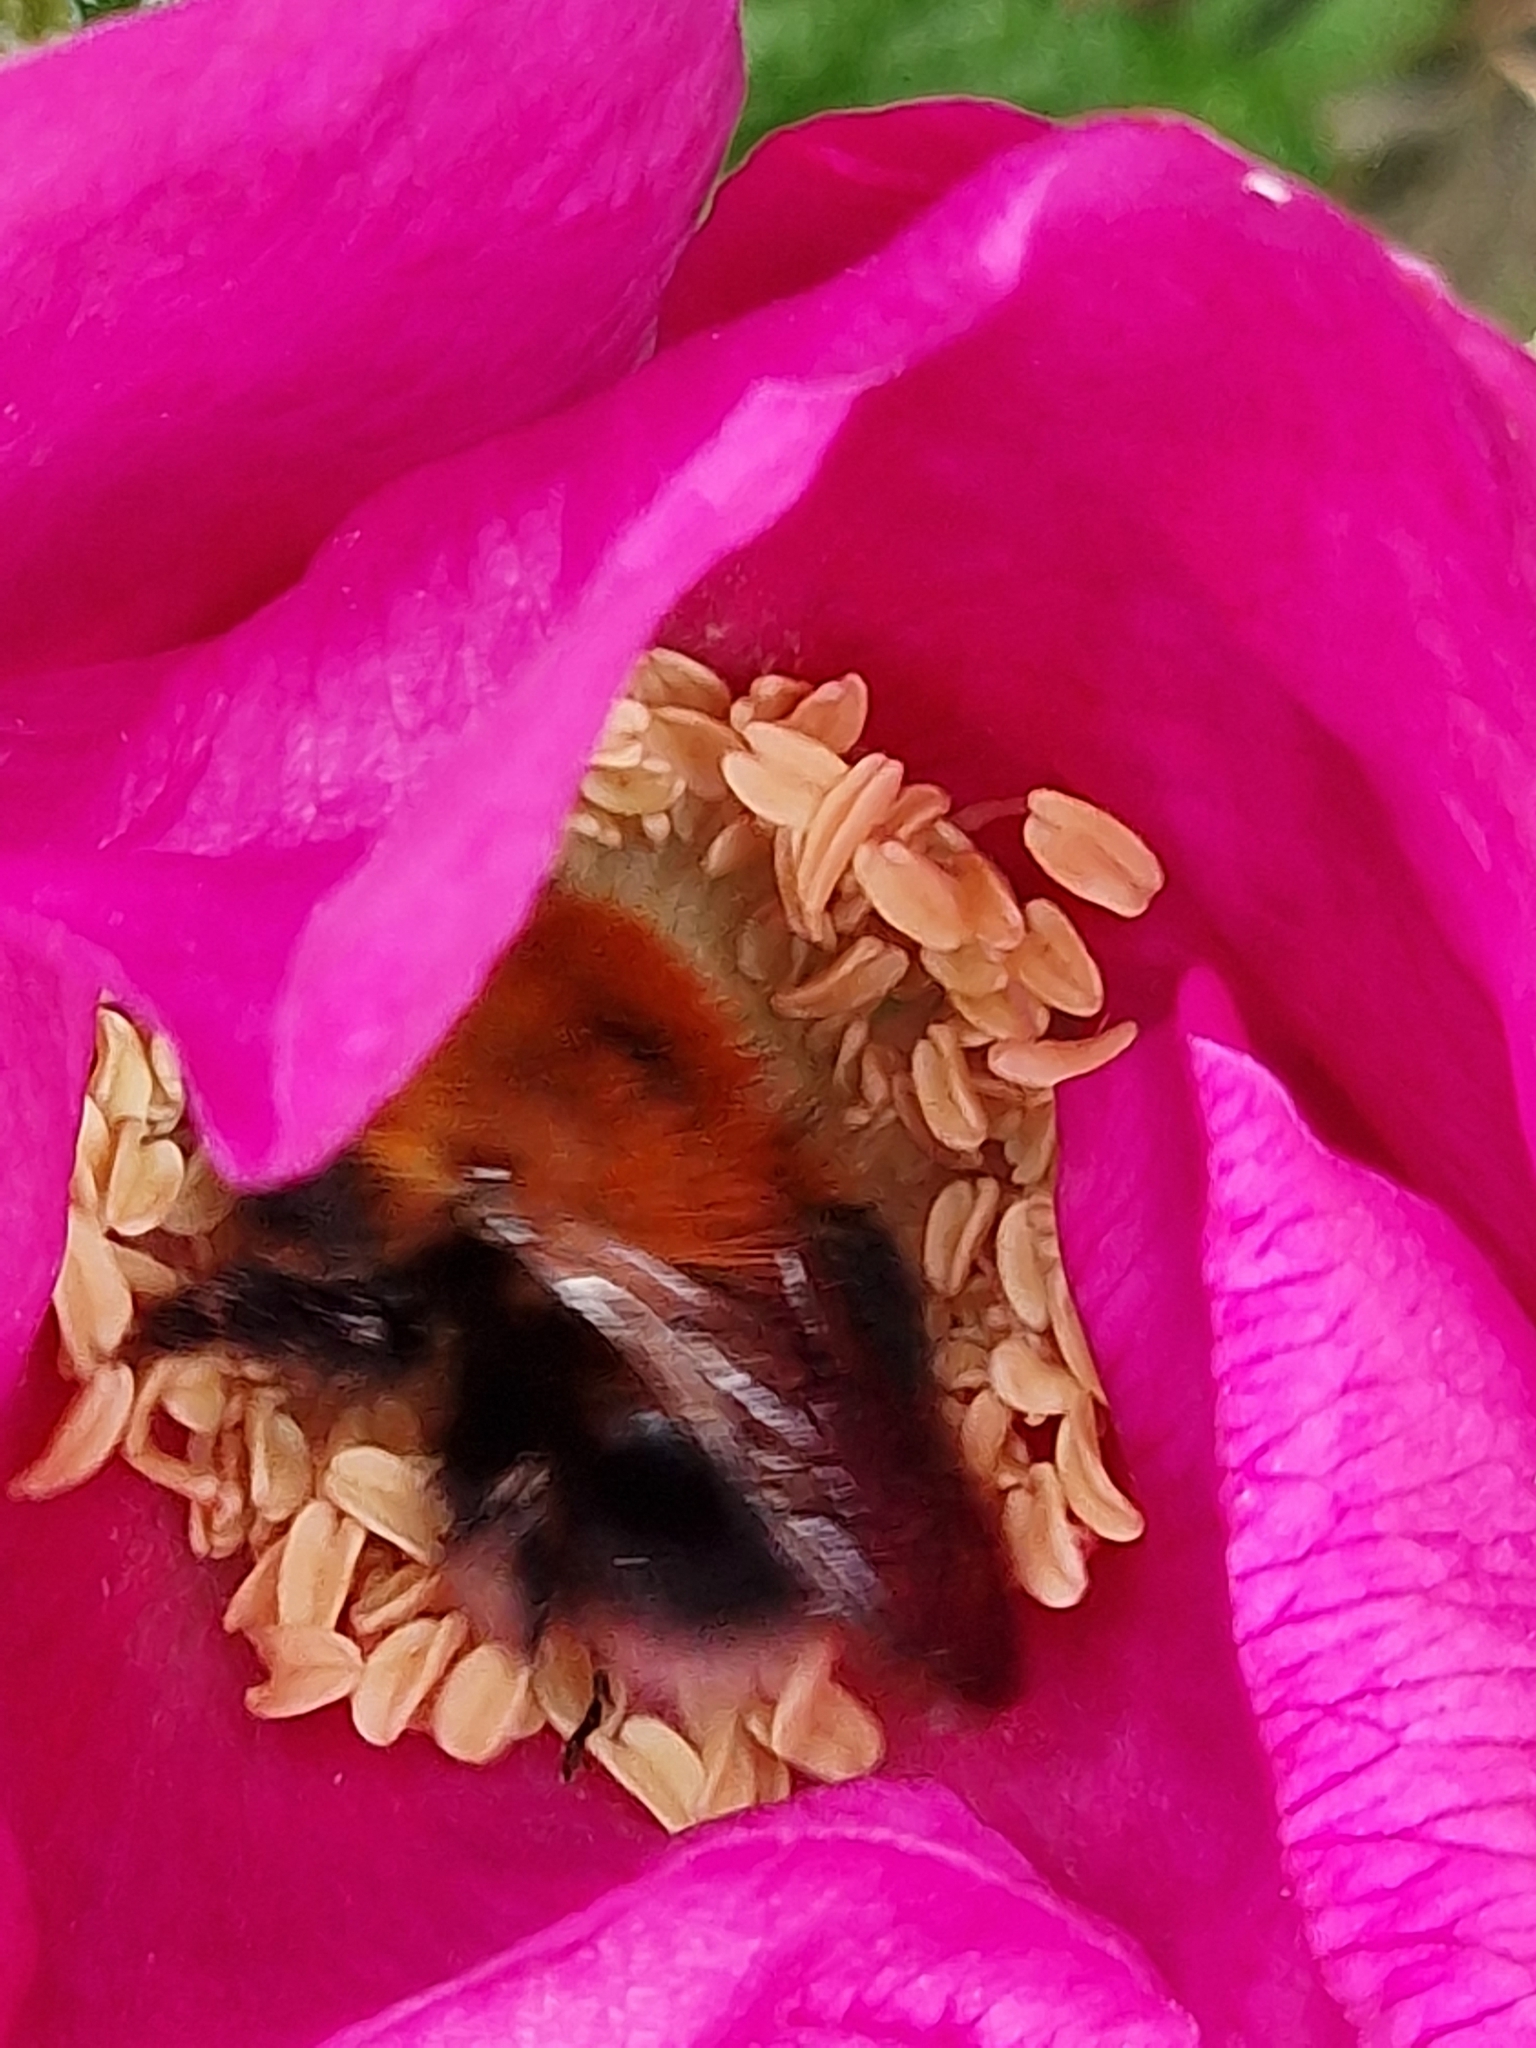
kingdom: Animalia
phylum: Arthropoda
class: Insecta
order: Hymenoptera
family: Apidae
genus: Bombus
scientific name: Bombus hypnorum
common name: New garden bumblebee
